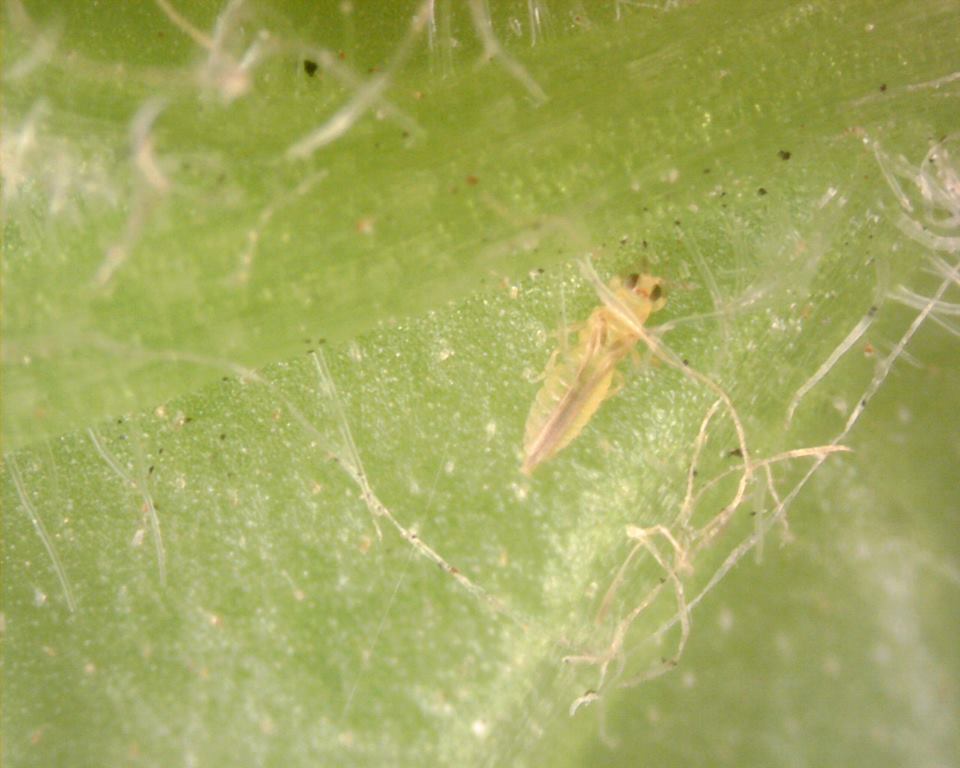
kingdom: Animalia
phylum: Arthropoda
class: Insecta
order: Thysanoptera
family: Thripidae
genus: Scirtothrips
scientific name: Scirtothrips dorsalis
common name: Thrips
